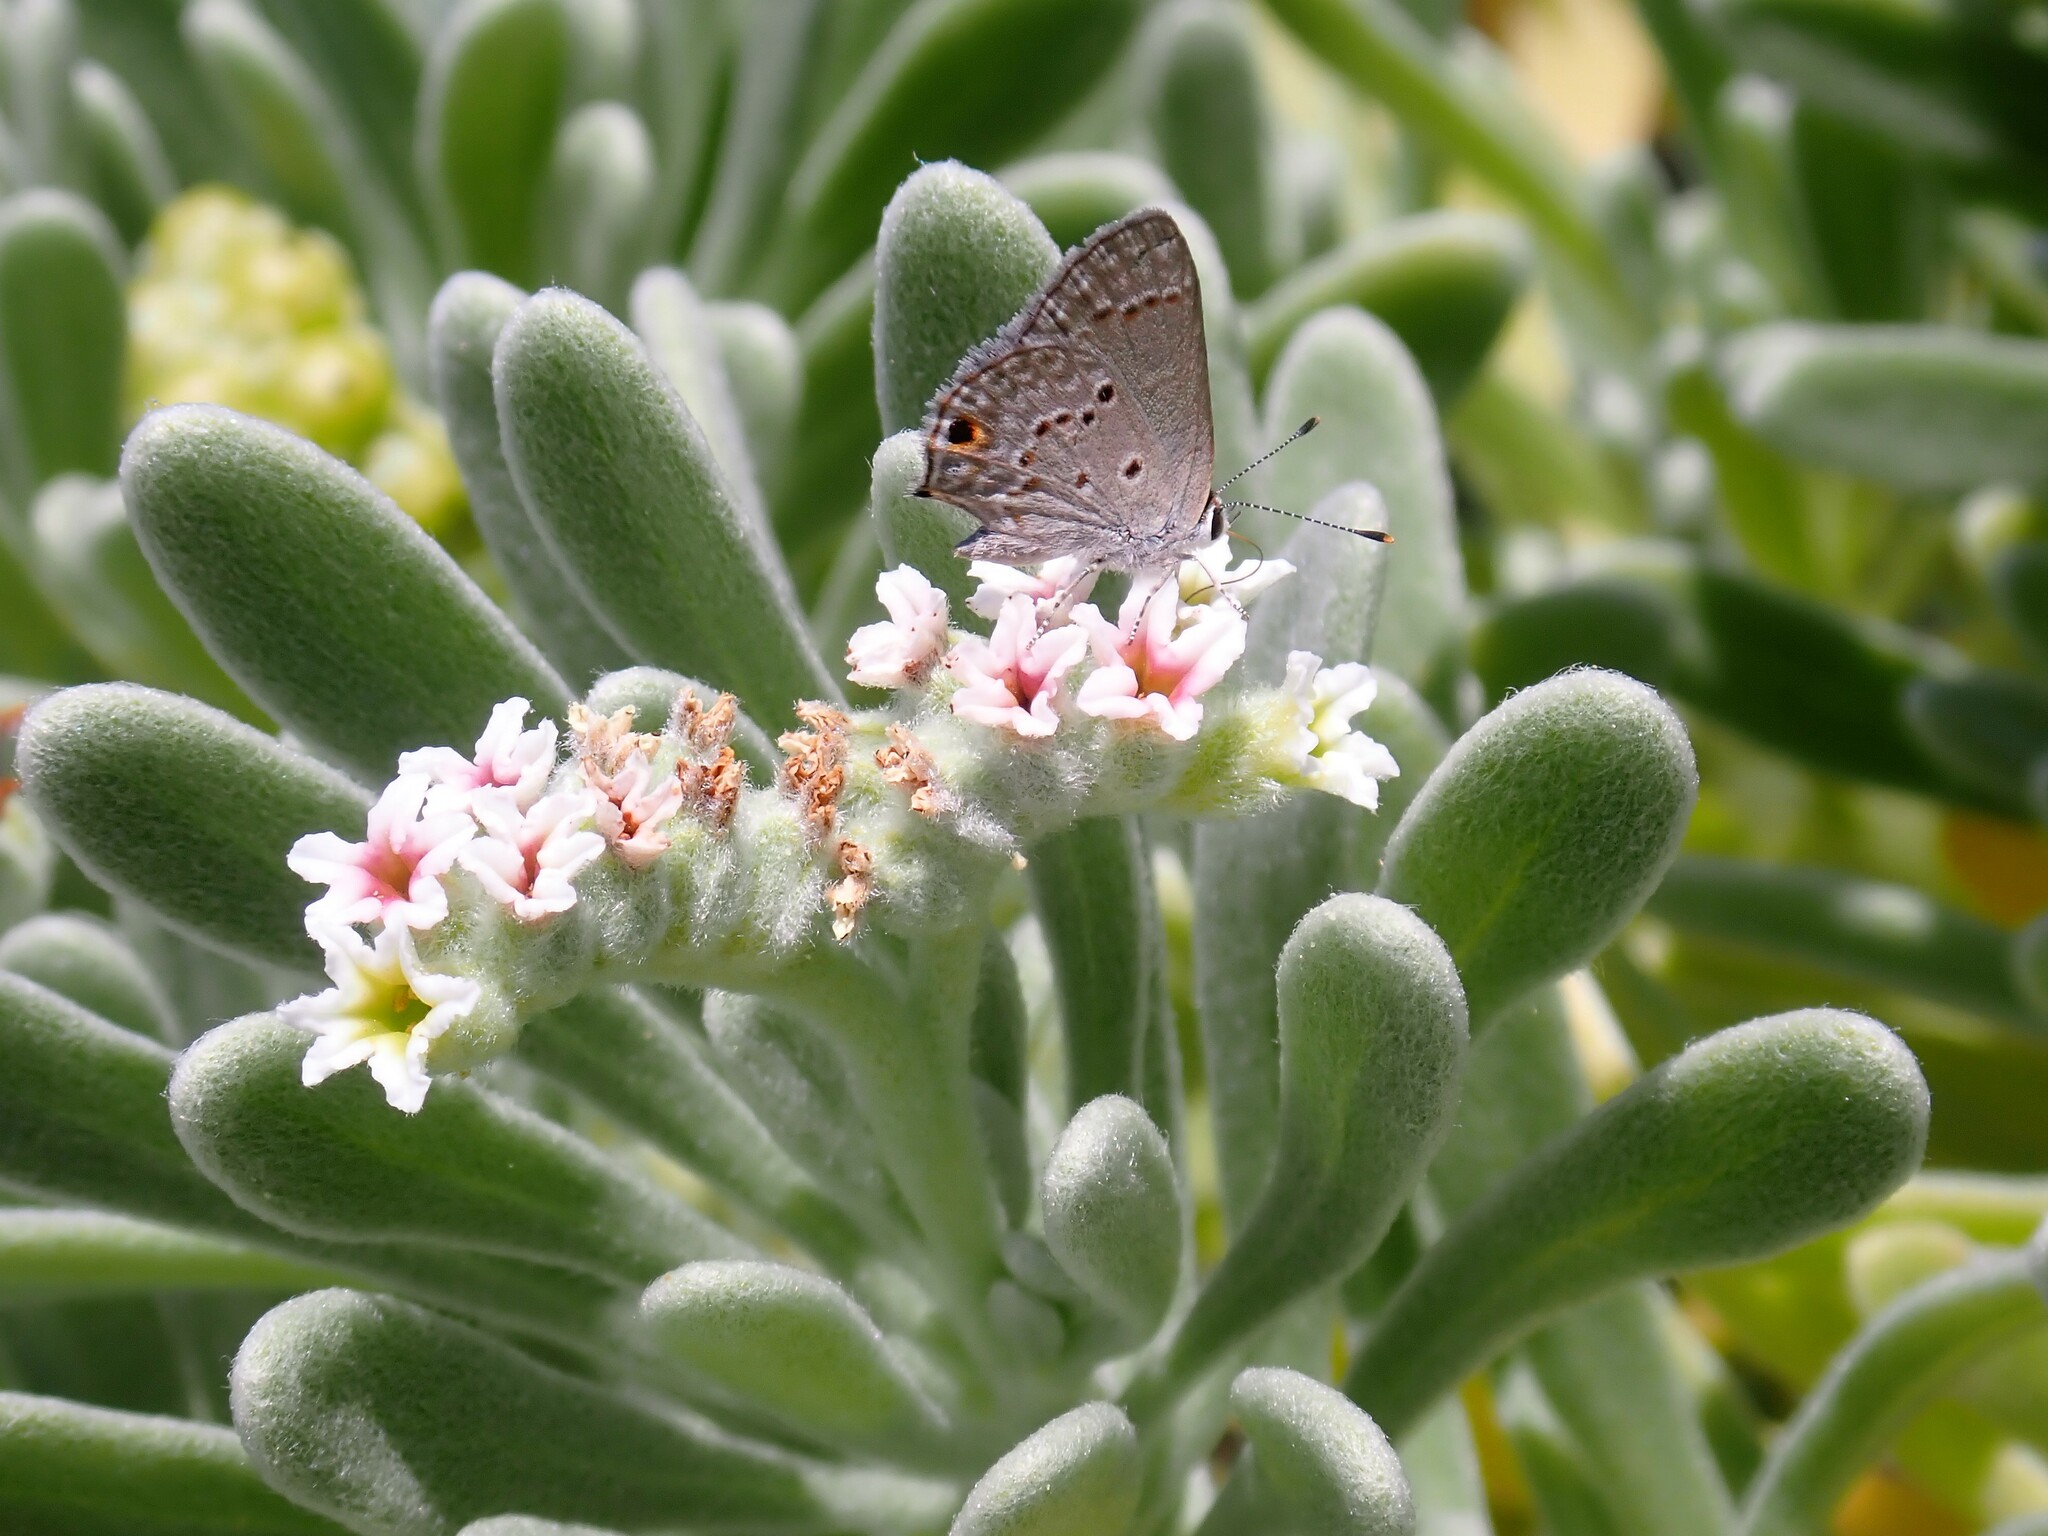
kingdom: Animalia
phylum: Arthropoda
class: Insecta
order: Lepidoptera
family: Lycaenidae
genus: Strymon
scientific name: Strymon bubastus
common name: Bubastes hairstreak
